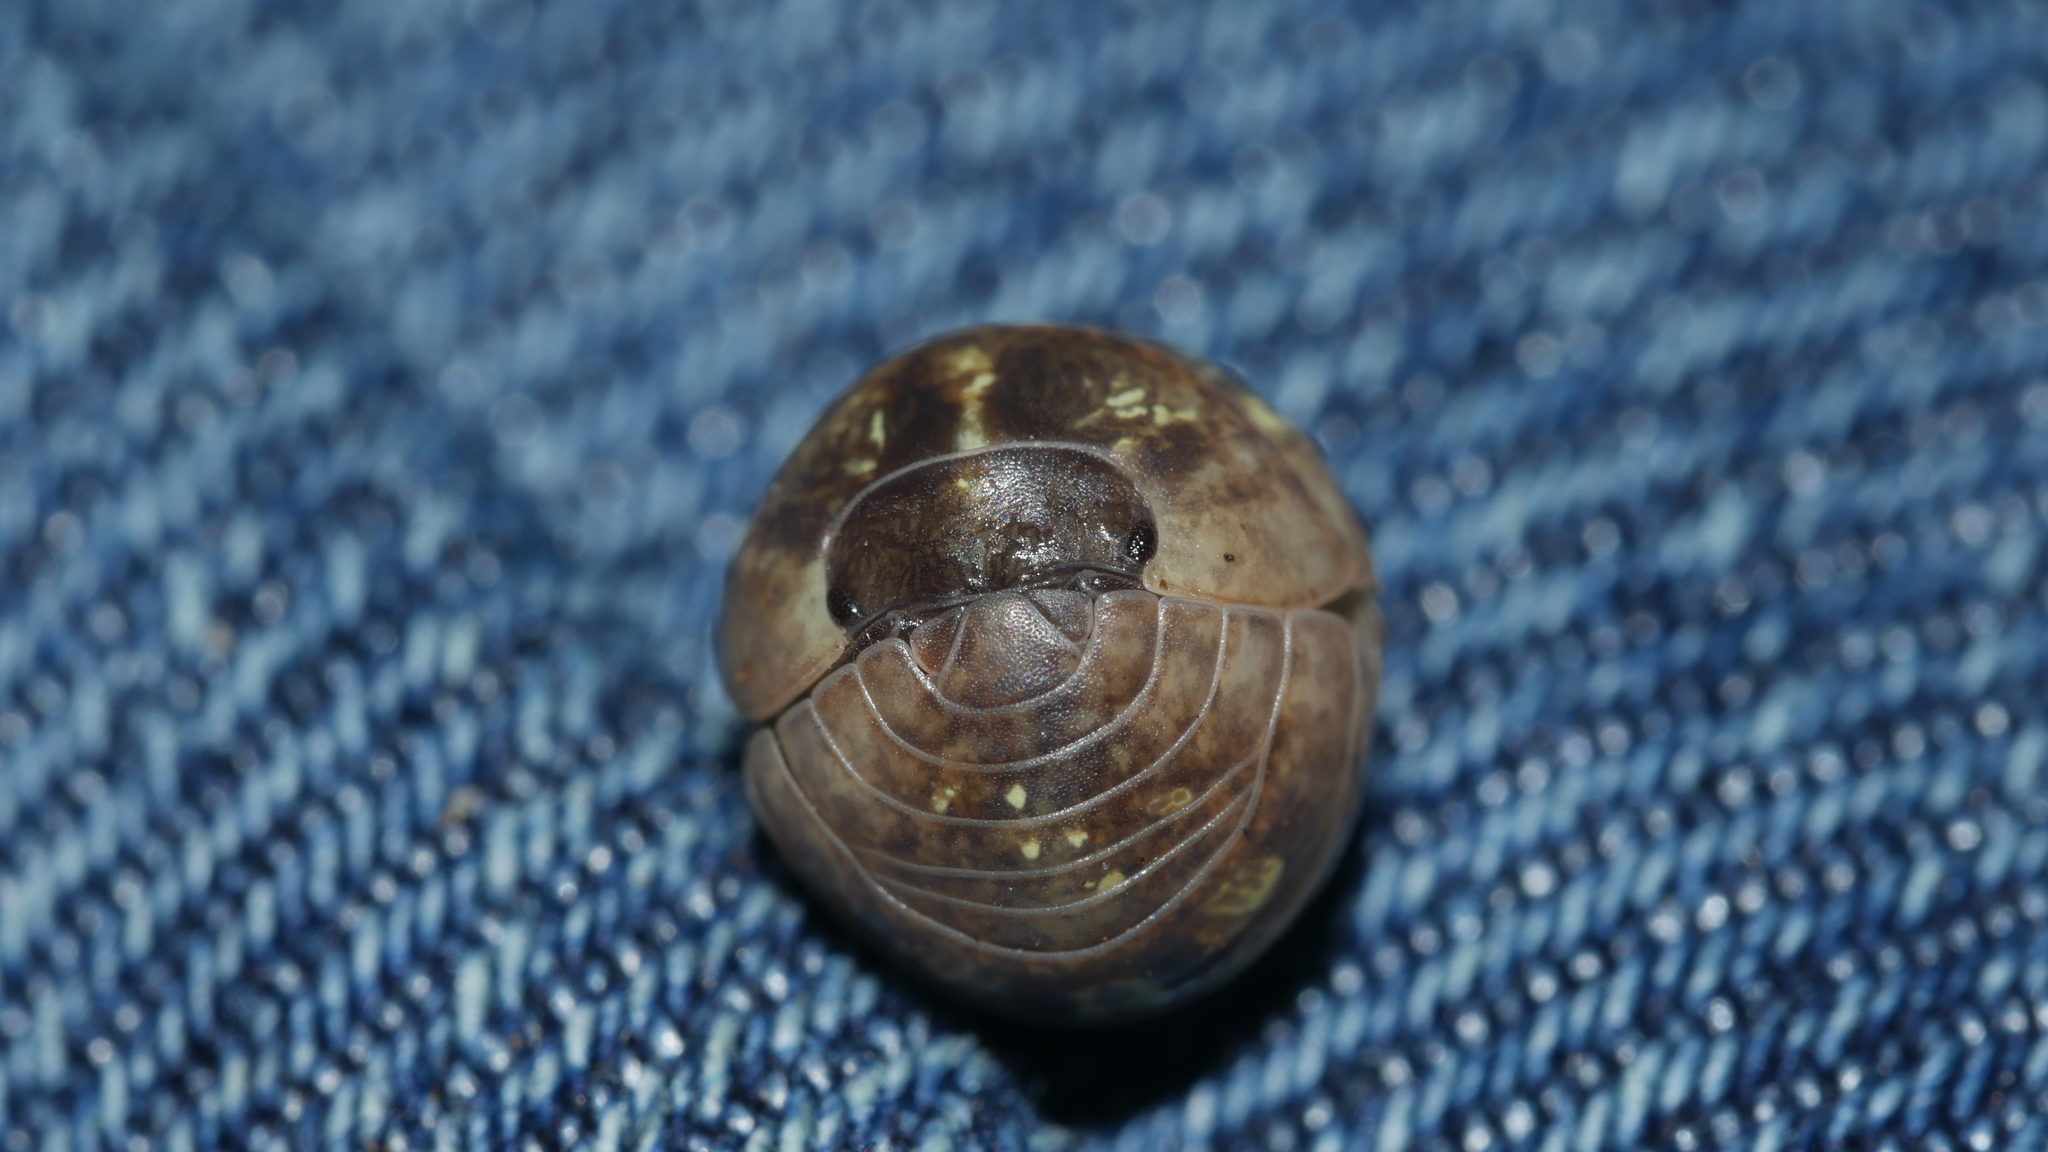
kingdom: Animalia
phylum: Arthropoda
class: Malacostraca
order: Isopoda
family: Armadillidiidae
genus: Armadillidium
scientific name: Armadillidium vulgare
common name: Common pill woodlouse
